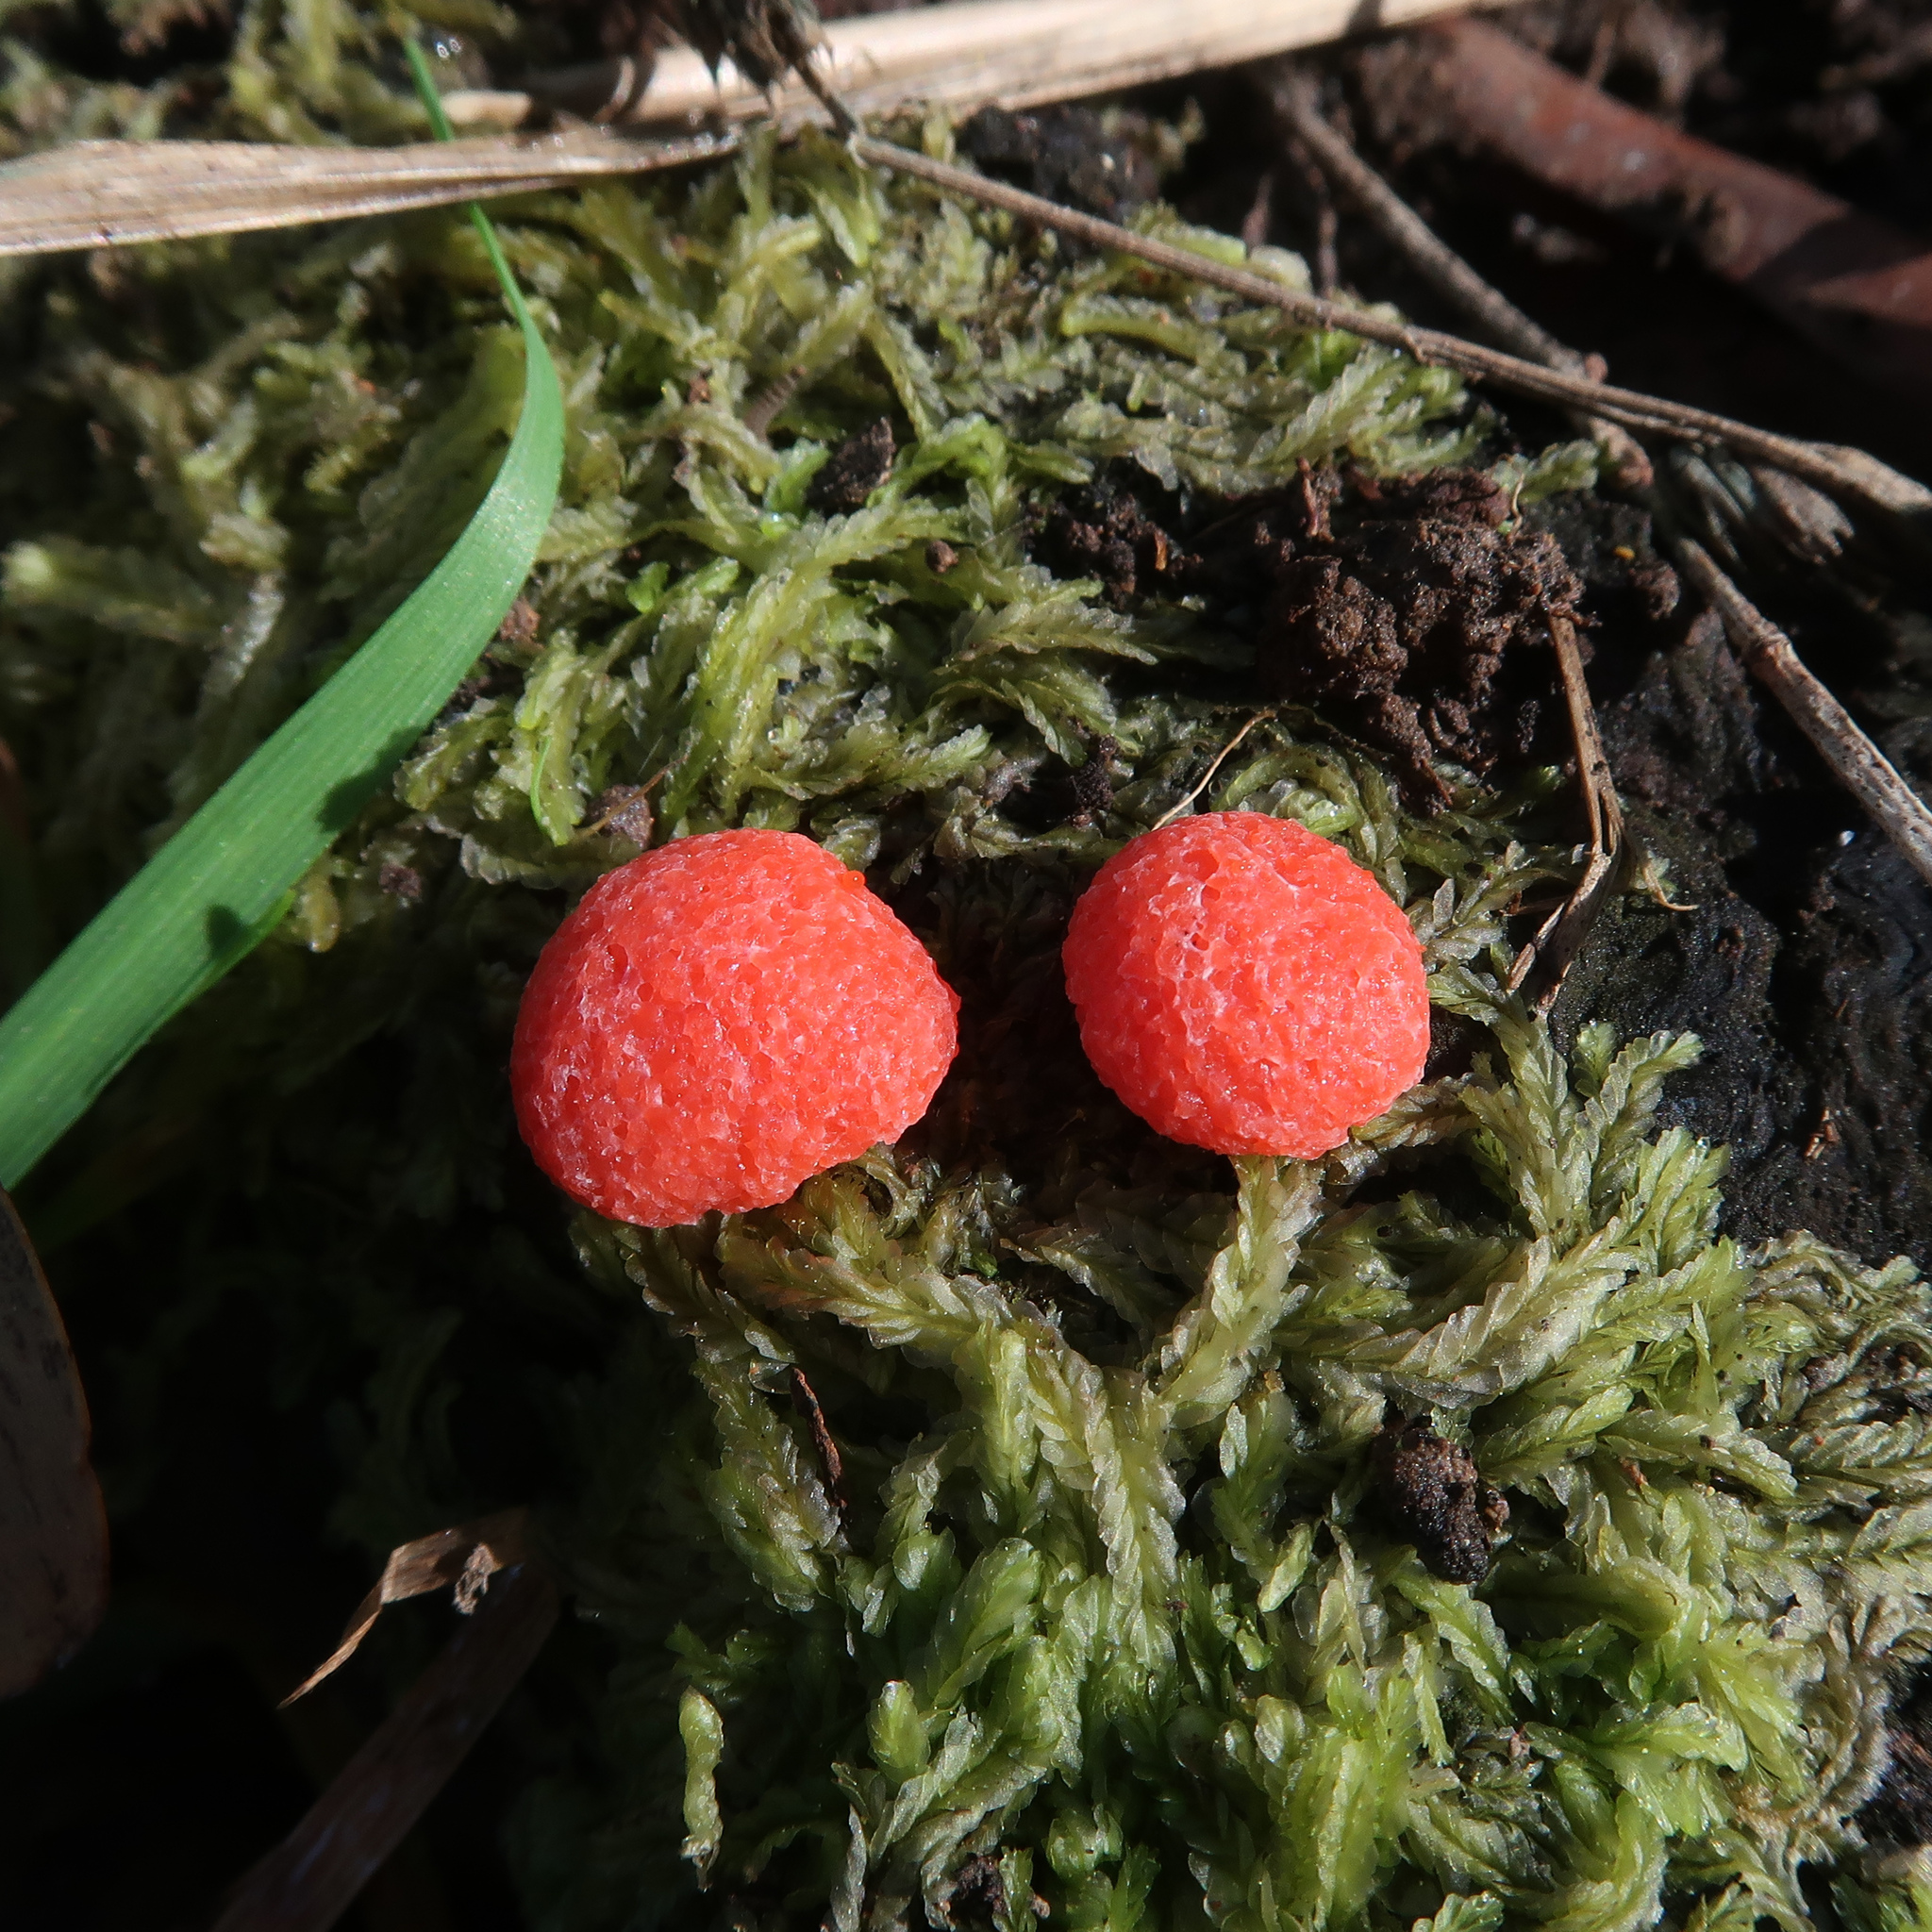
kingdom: Protozoa
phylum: Mycetozoa
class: Myxomycetes
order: Cribrariales
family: Tubiferaceae
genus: Tubifera
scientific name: Tubifera ferruginosa
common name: Red raspberry slime mold
